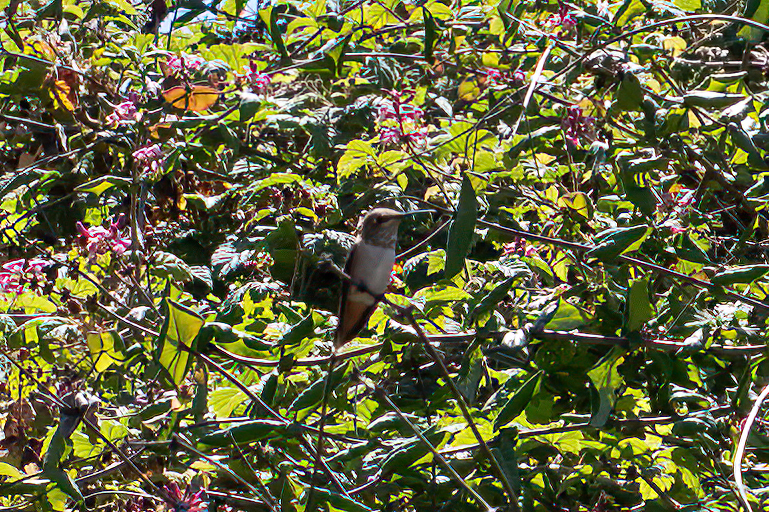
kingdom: Animalia
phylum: Chordata
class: Aves
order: Apodiformes
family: Trochilidae
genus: Selasphorus
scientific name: Selasphorus sasin
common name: Allen's hummingbird
